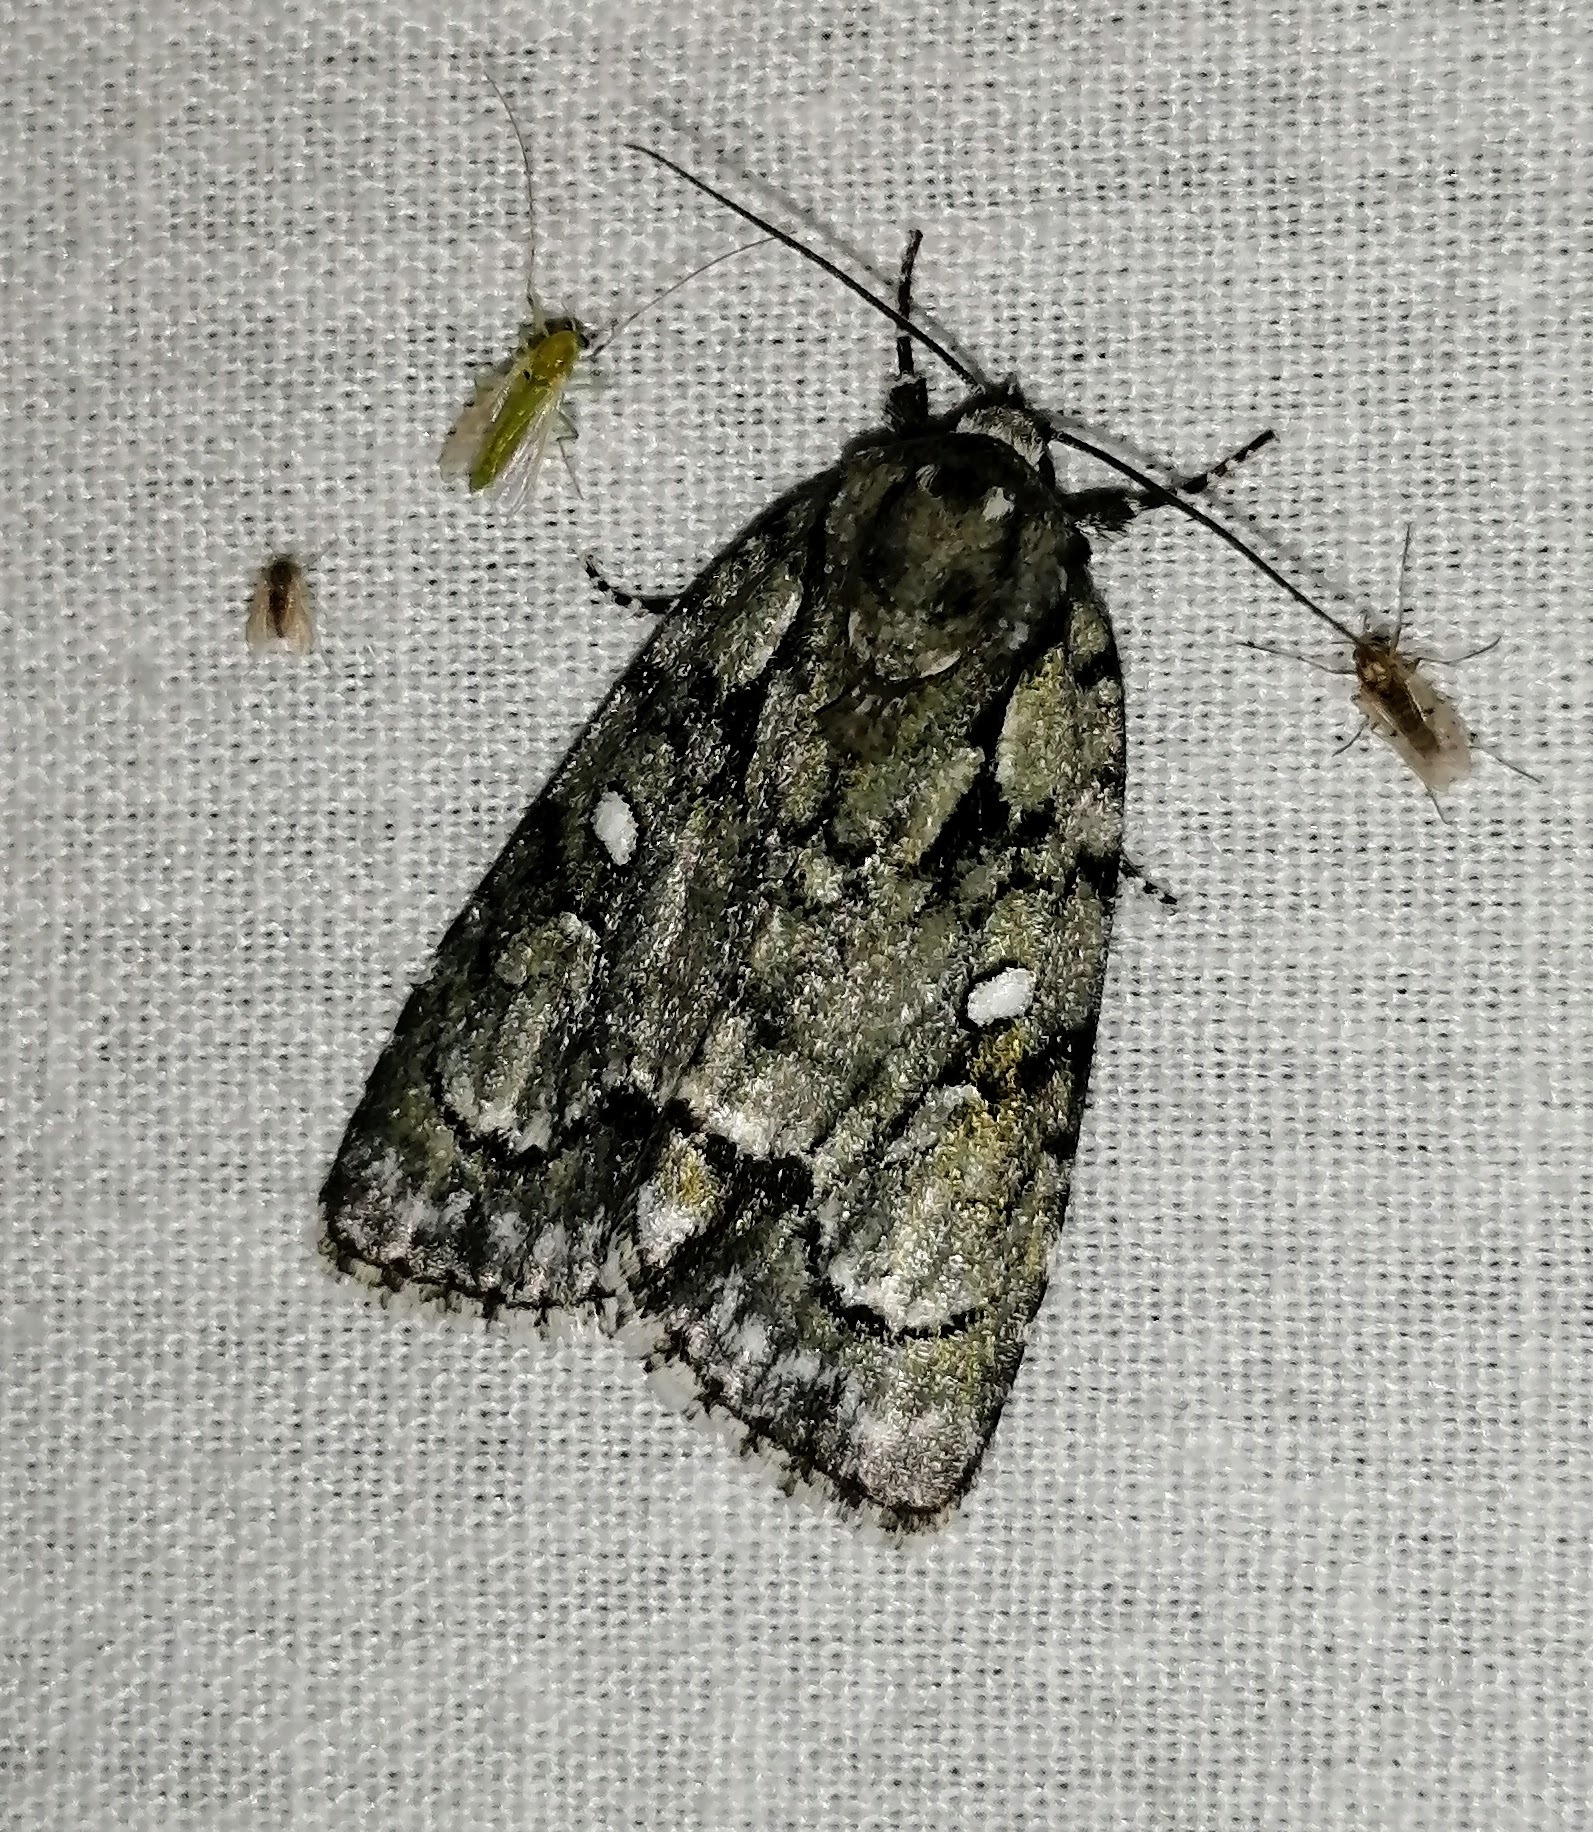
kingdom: Animalia
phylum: Arthropoda
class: Insecta
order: Lepidoptera
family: Noctuidae
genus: Acronicta
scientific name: Acronicta vinnula
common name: Delightful dagger
